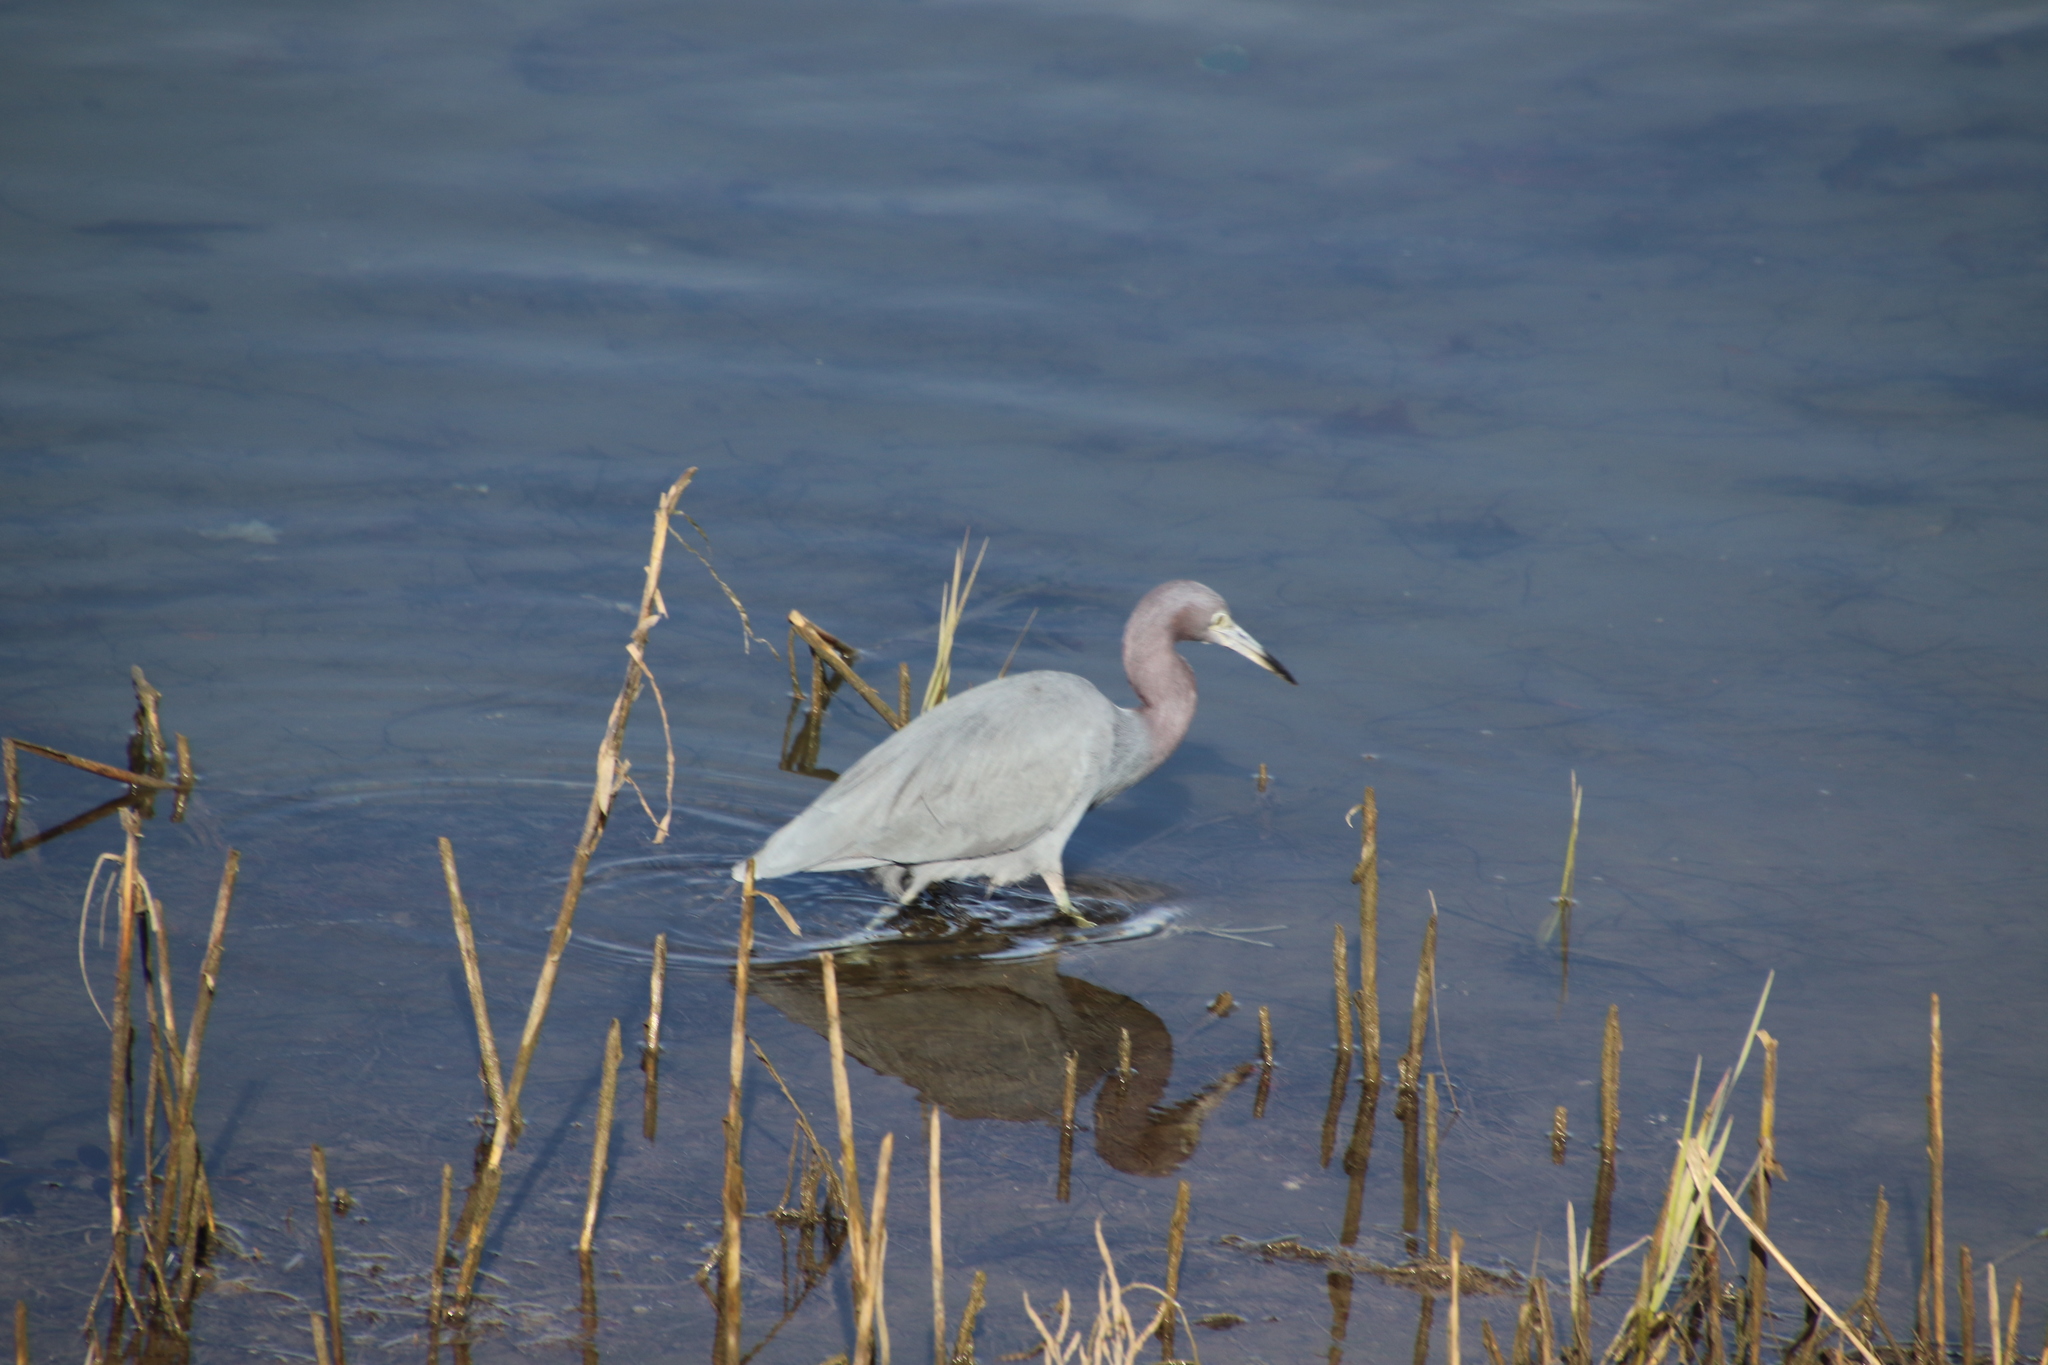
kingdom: Animalia
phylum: Chordata
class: Aves
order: Pelecaniformes
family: Ardeidae
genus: Egretta
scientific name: Egretta caerulea
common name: Little blue heron
